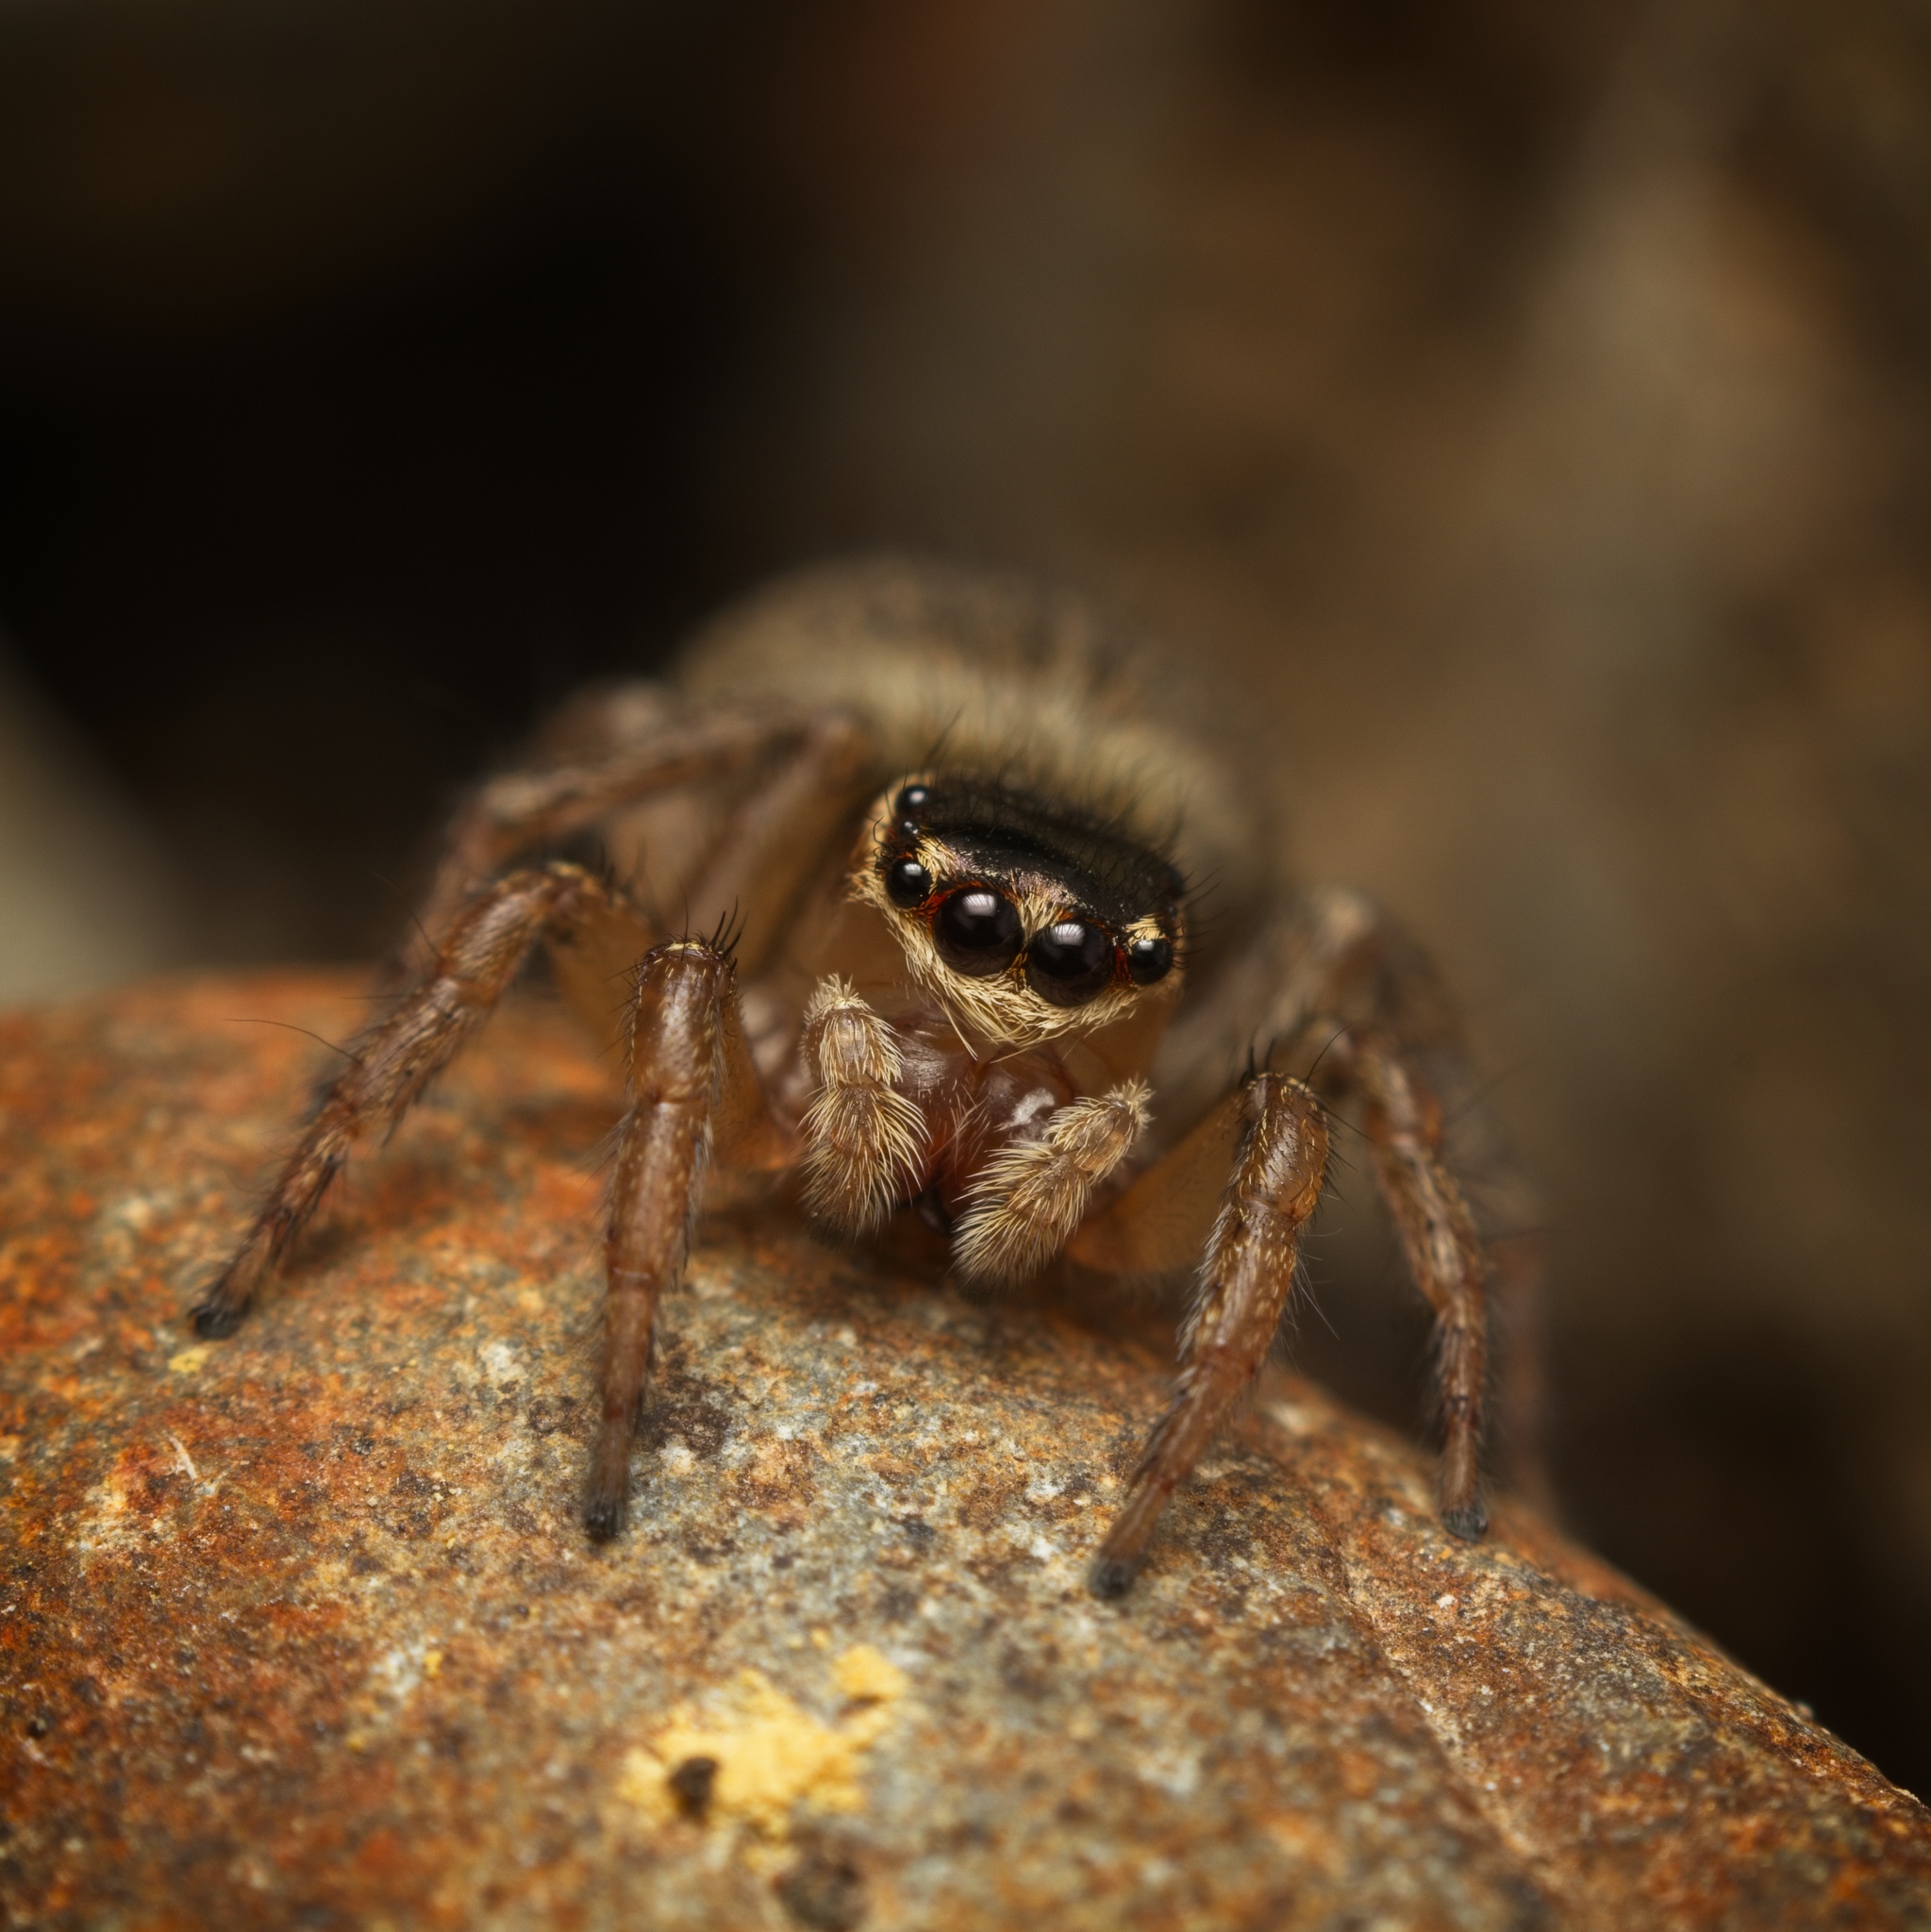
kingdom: Animalia
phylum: Arthropoda
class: Arachnida
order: Araneae
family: Salticidae
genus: Maratus
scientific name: Maratus griseus
